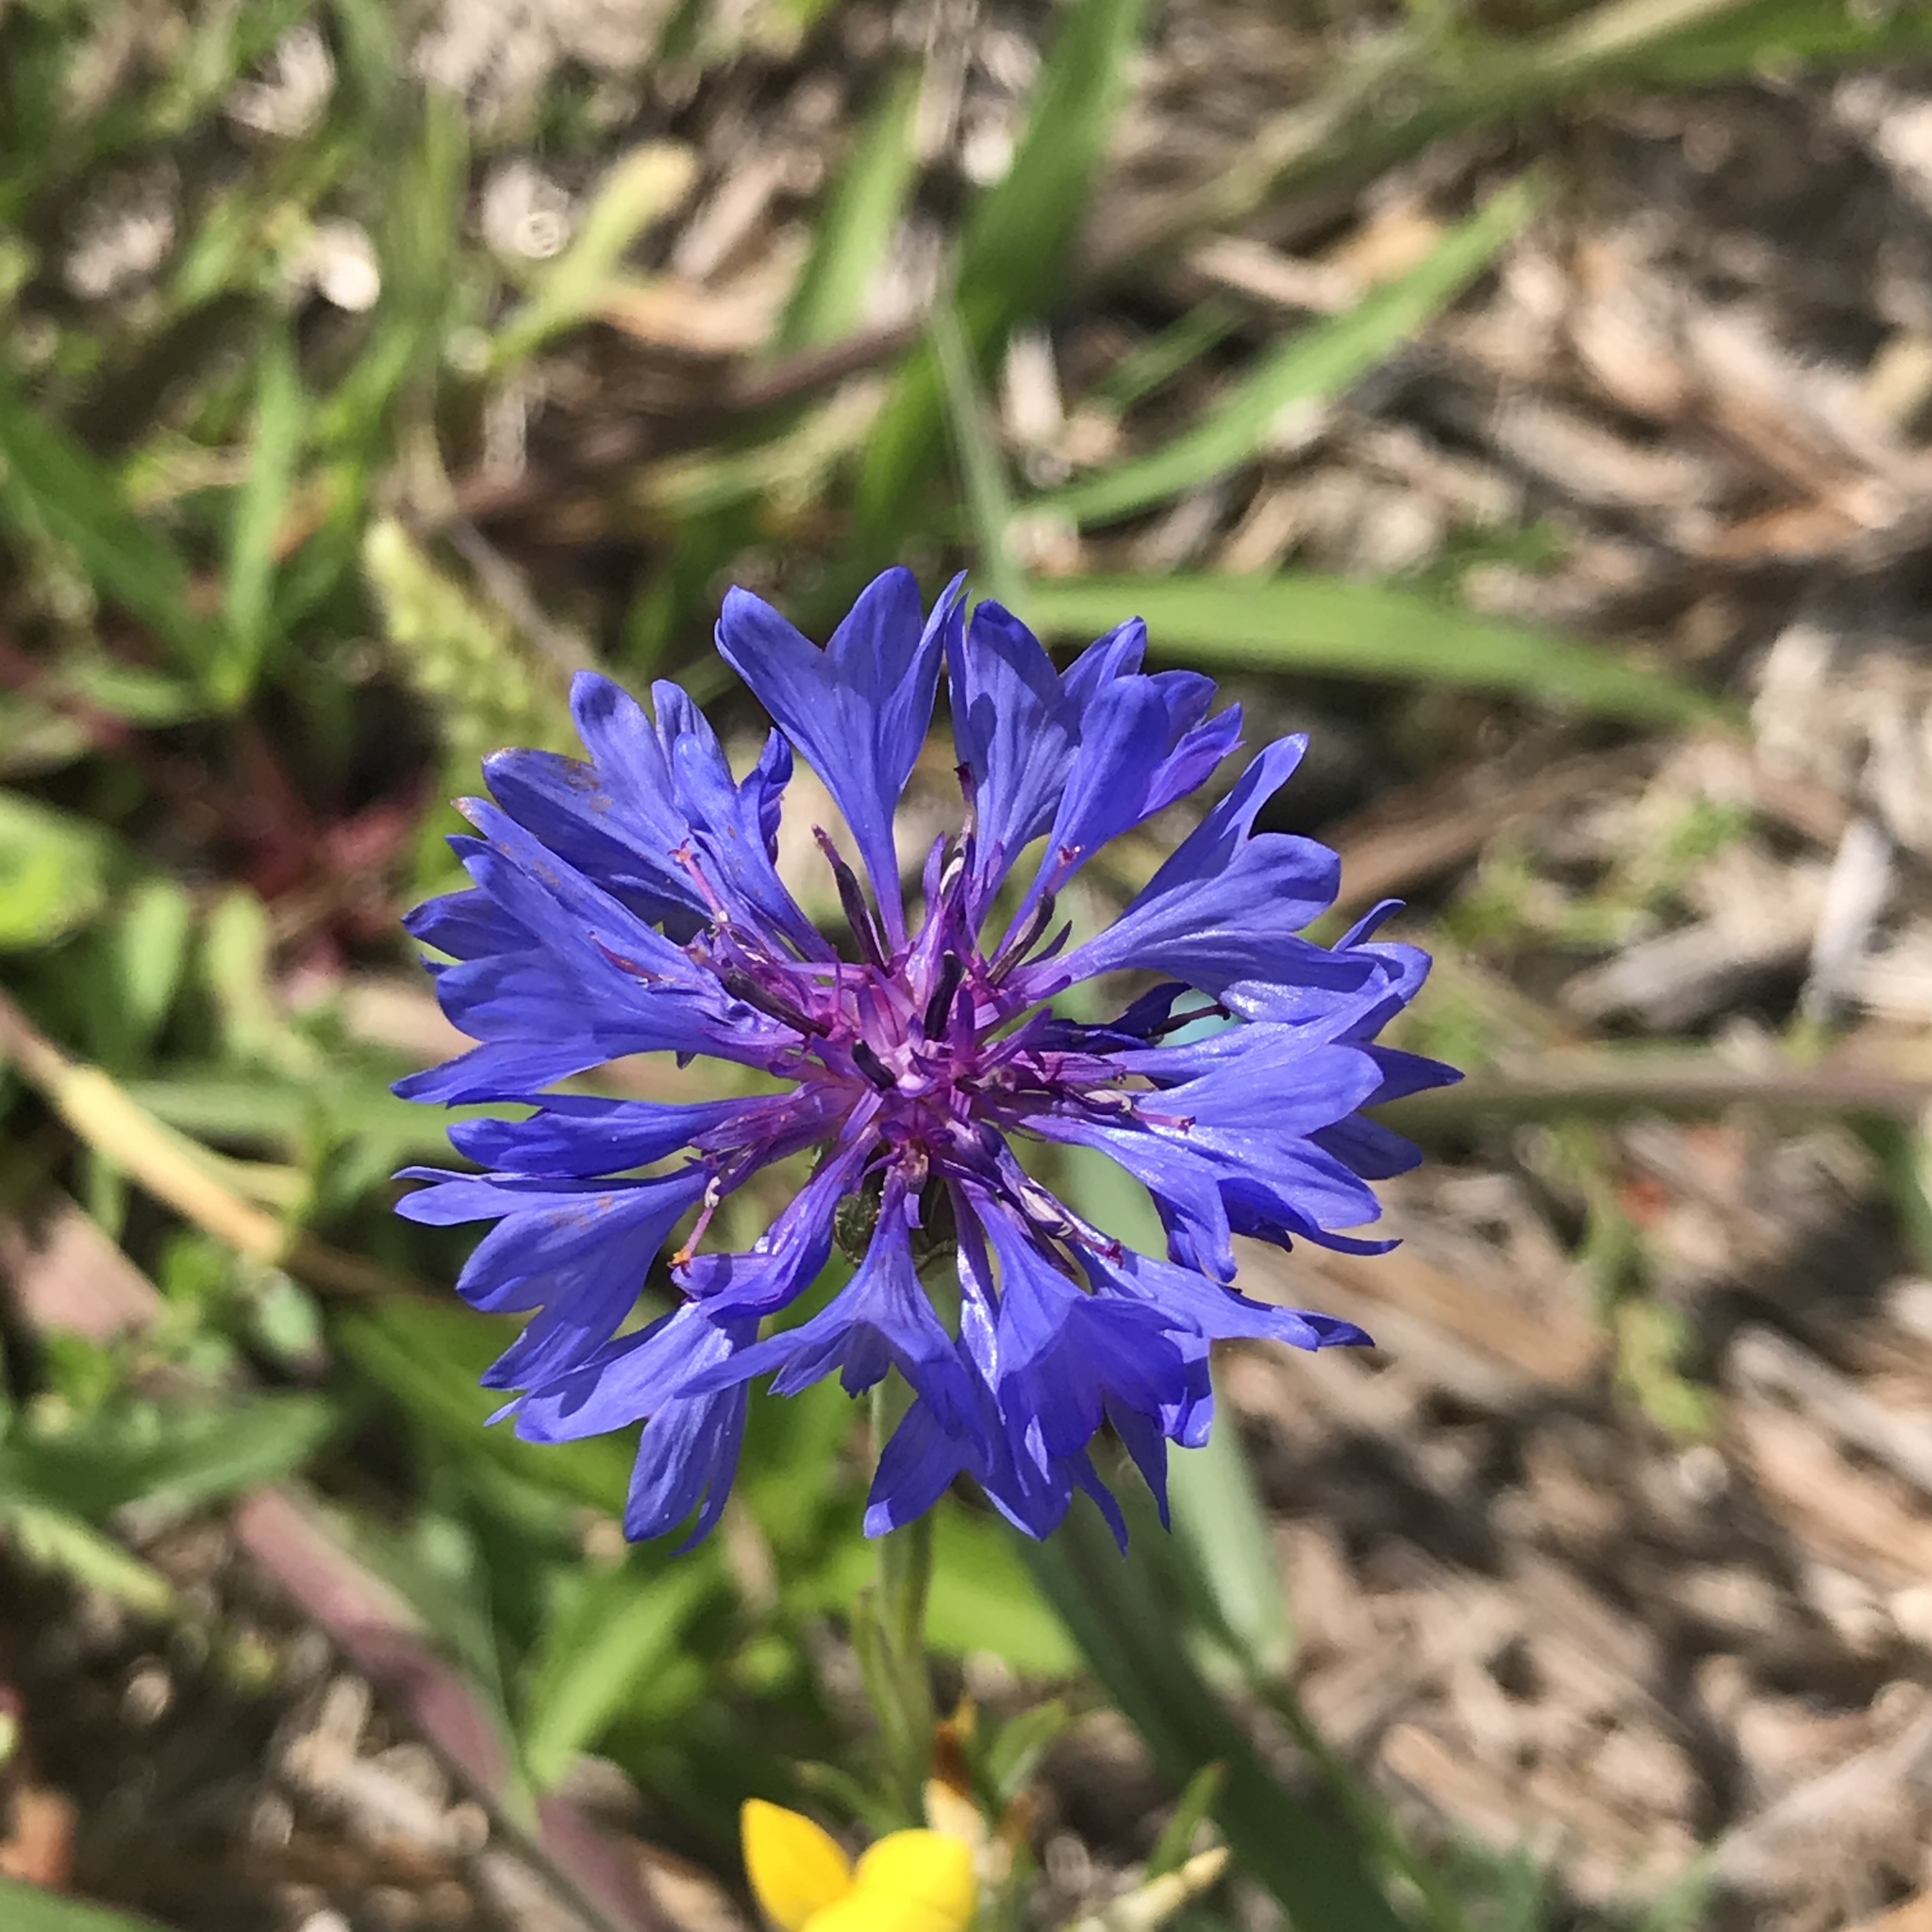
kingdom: Plantae
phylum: Tracheophyta
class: Magnoliopsida
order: Asterales
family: Asteraceae
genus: Centaurea
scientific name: Centaurea cyanus
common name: Cornflower
